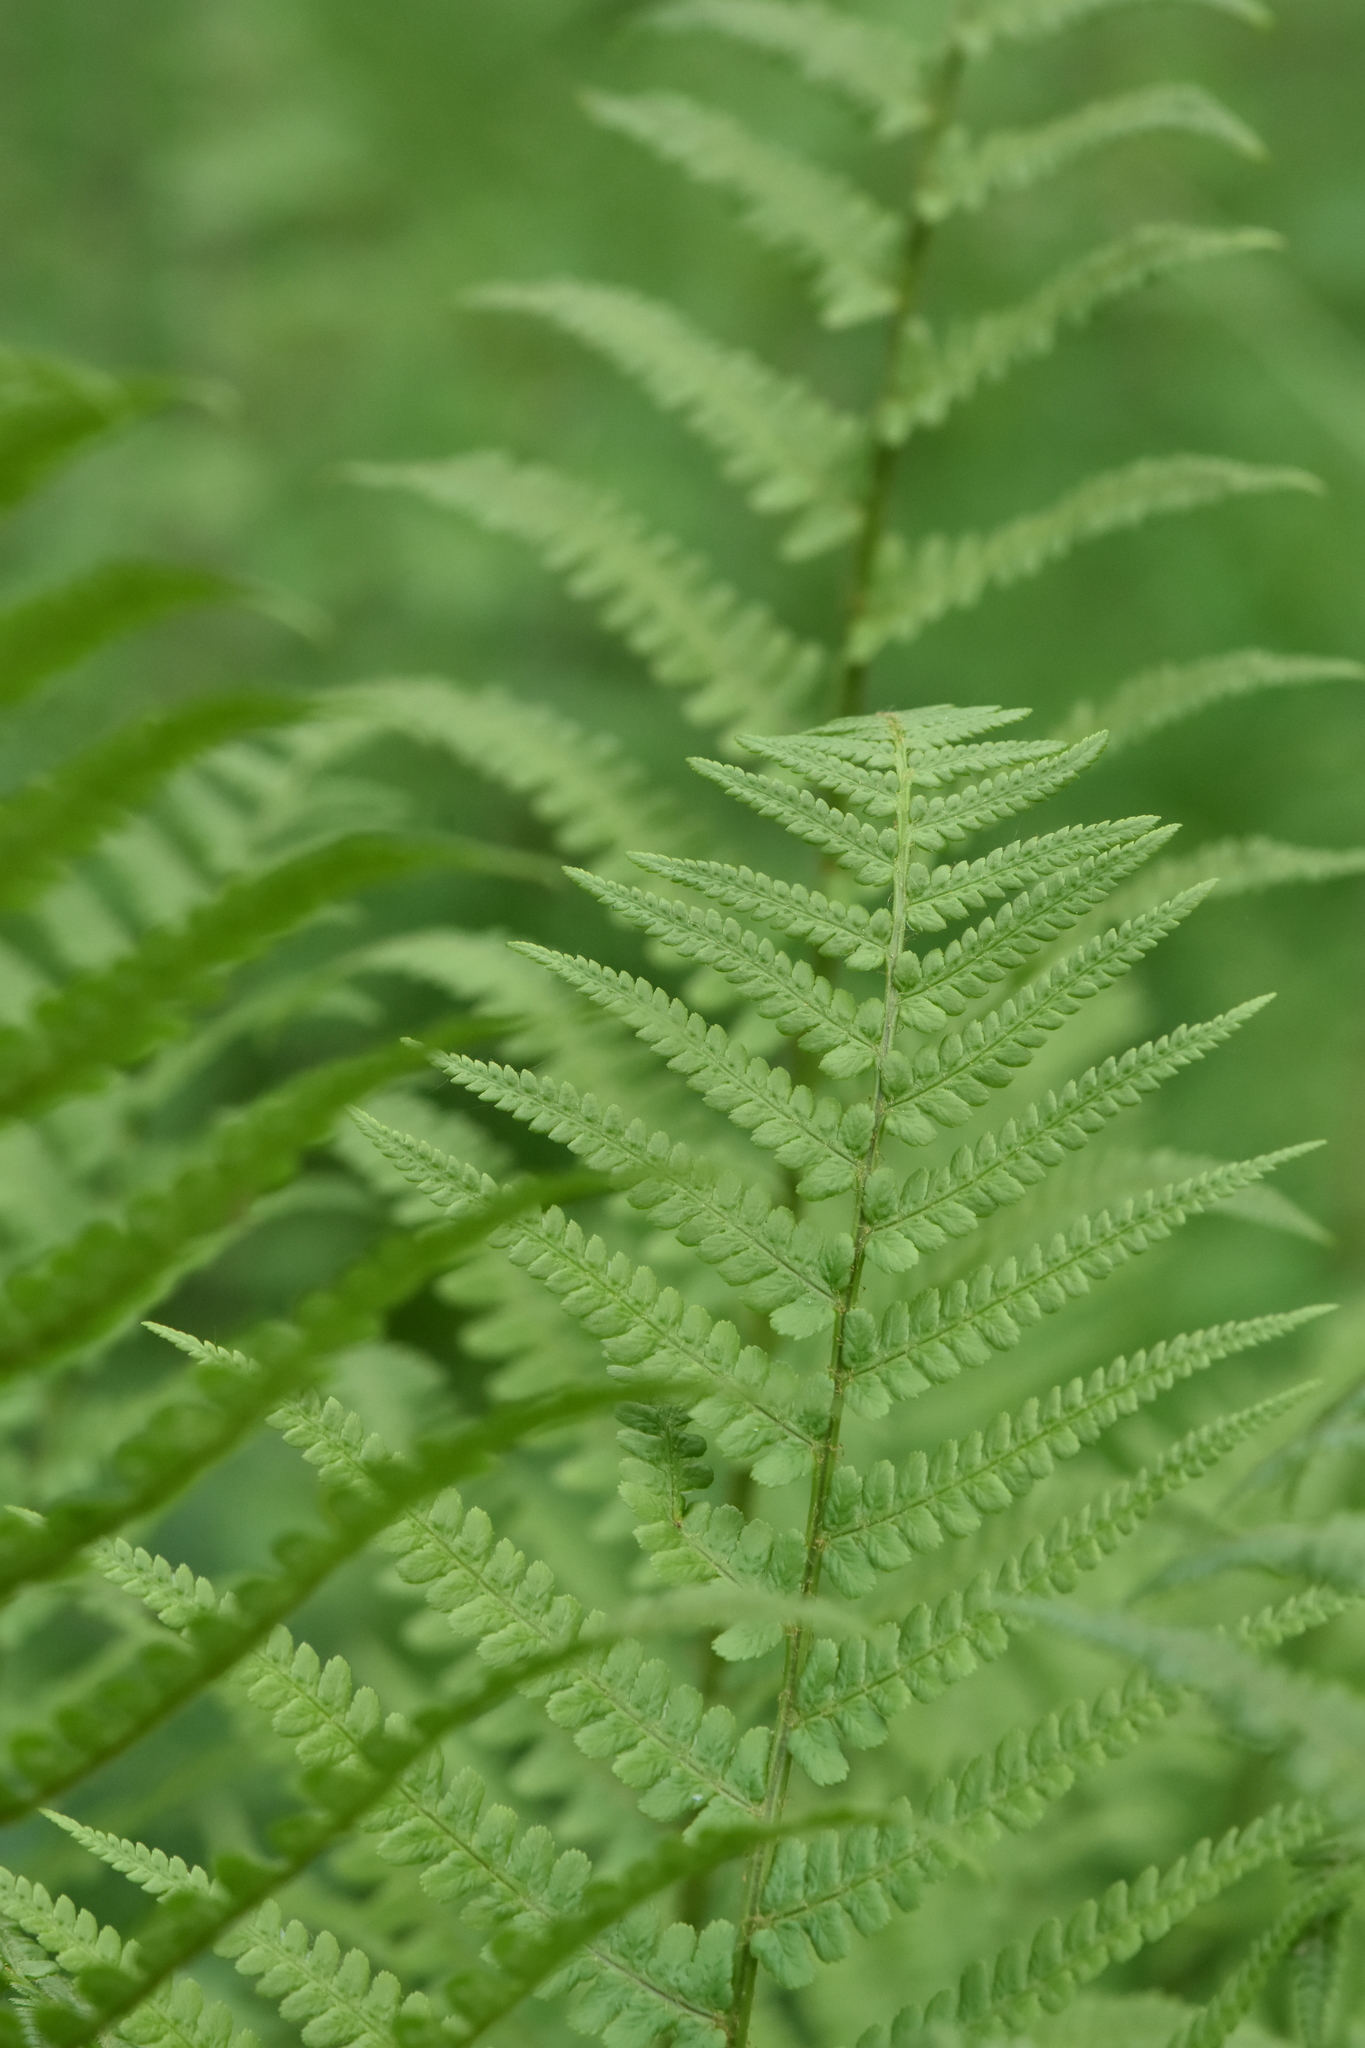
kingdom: Plantae
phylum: Tracheophyta
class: Polypodiopsida
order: Polypodiales
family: Dryopteridaceae
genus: Dryopteris
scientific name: Dryopteris filix-mas
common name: Male fern
